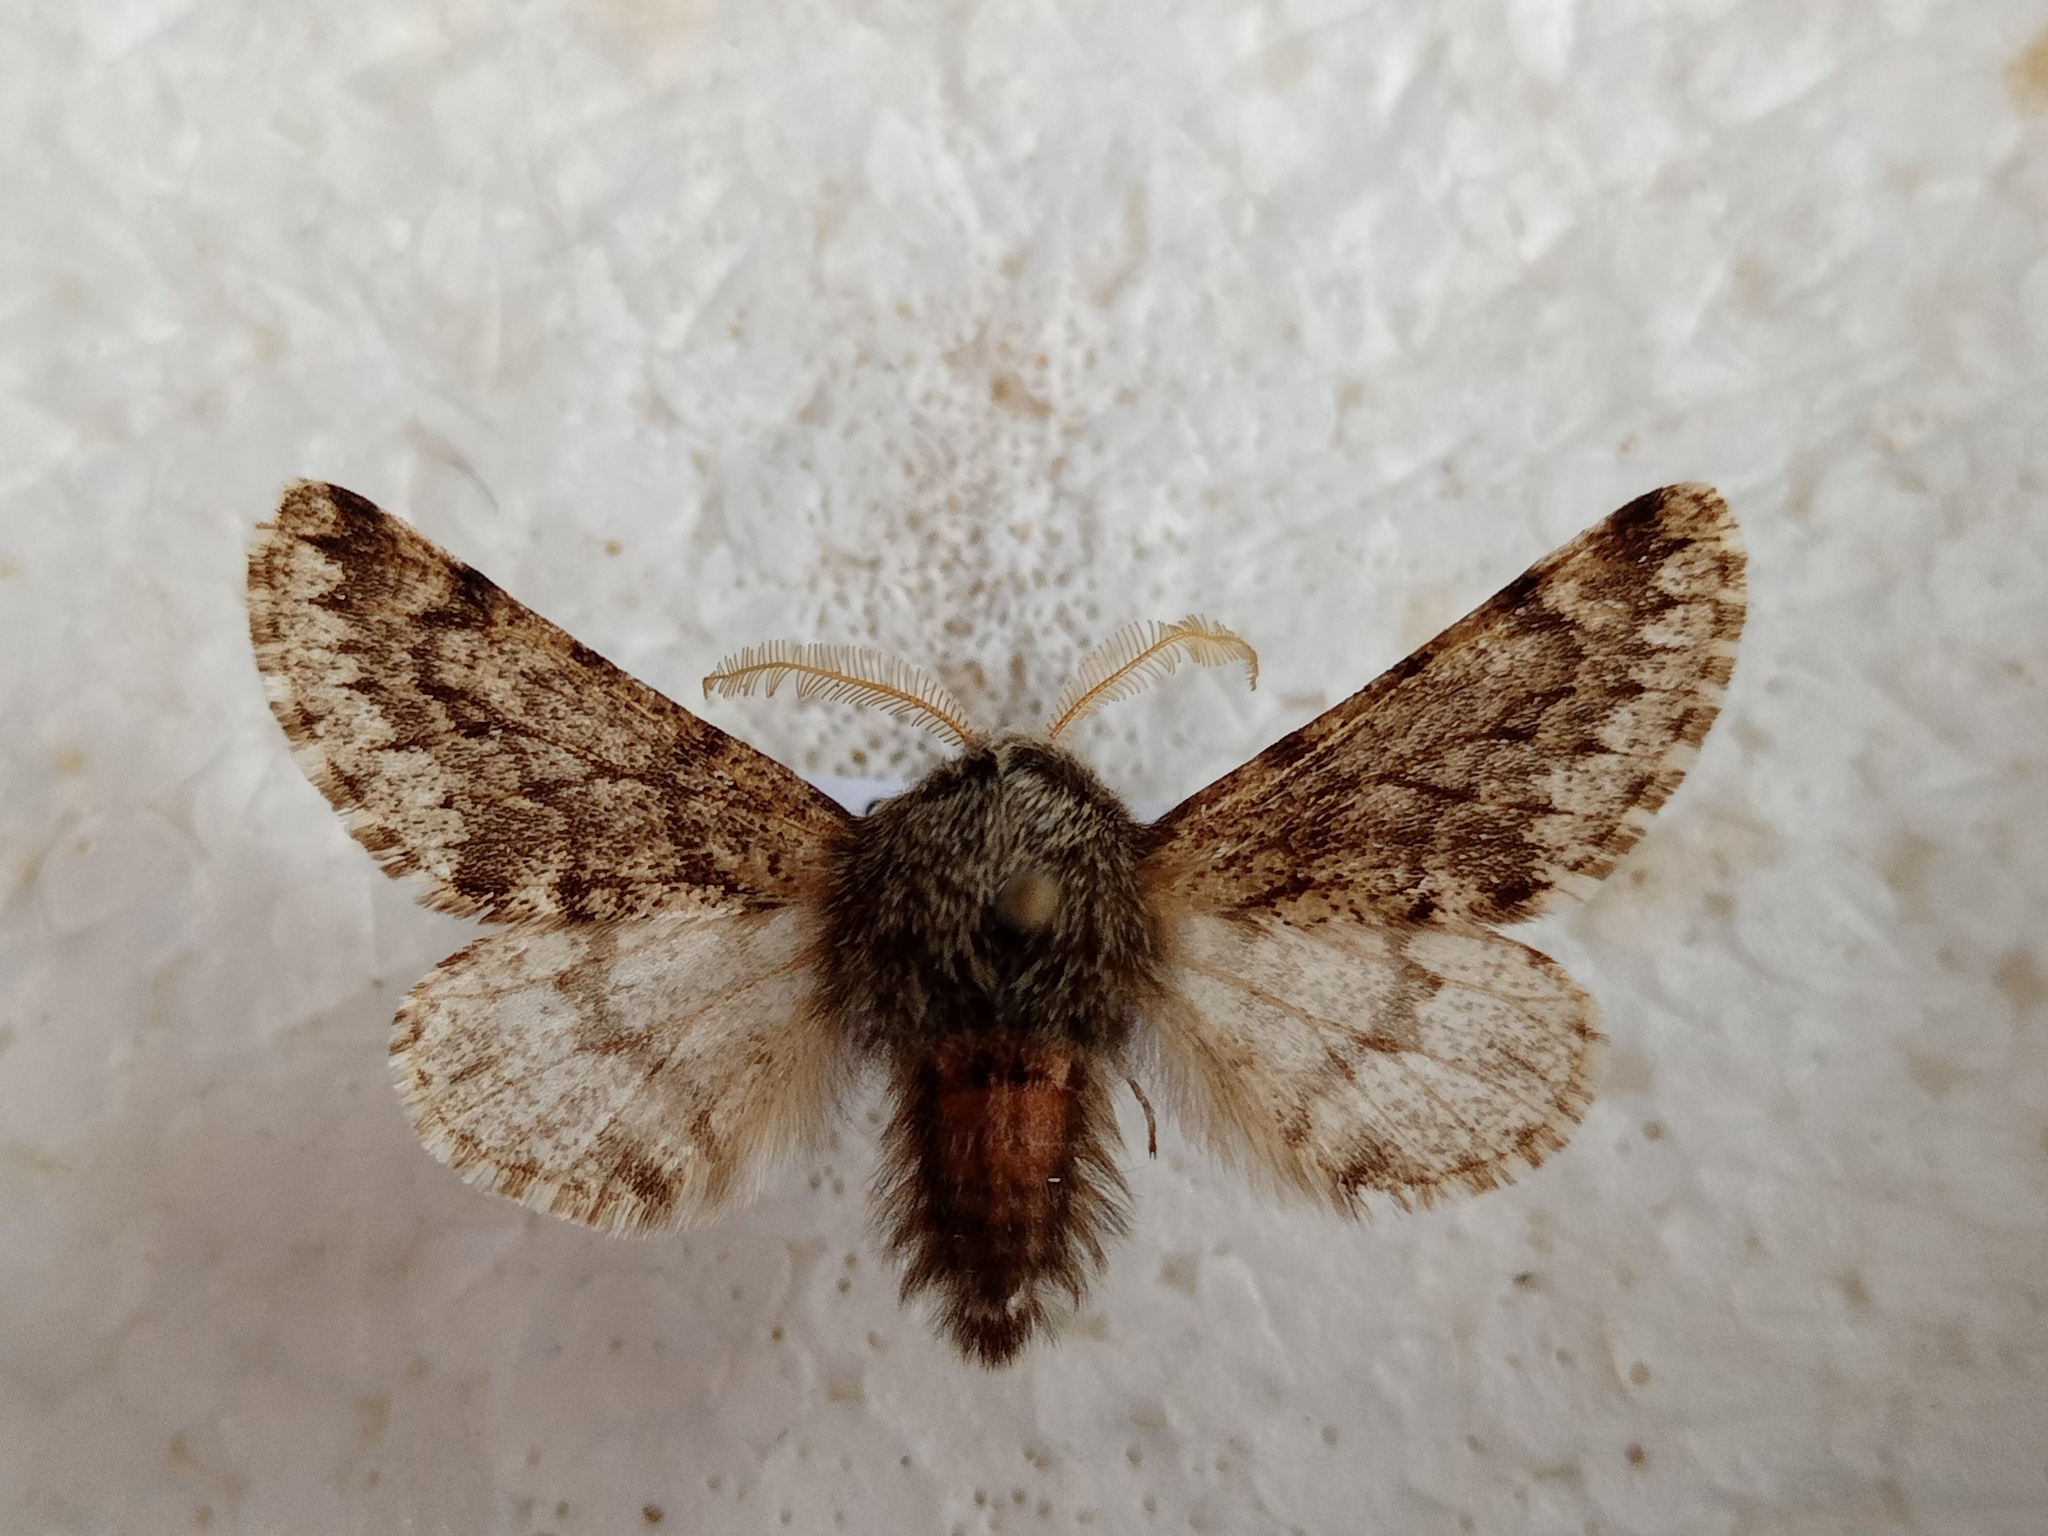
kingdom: Animalia
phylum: Arthropoda
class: Insecta
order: Lepidoptera
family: Geometridae
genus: Apocheima
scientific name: Apocheima hispidaria
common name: Small brindled beauty
